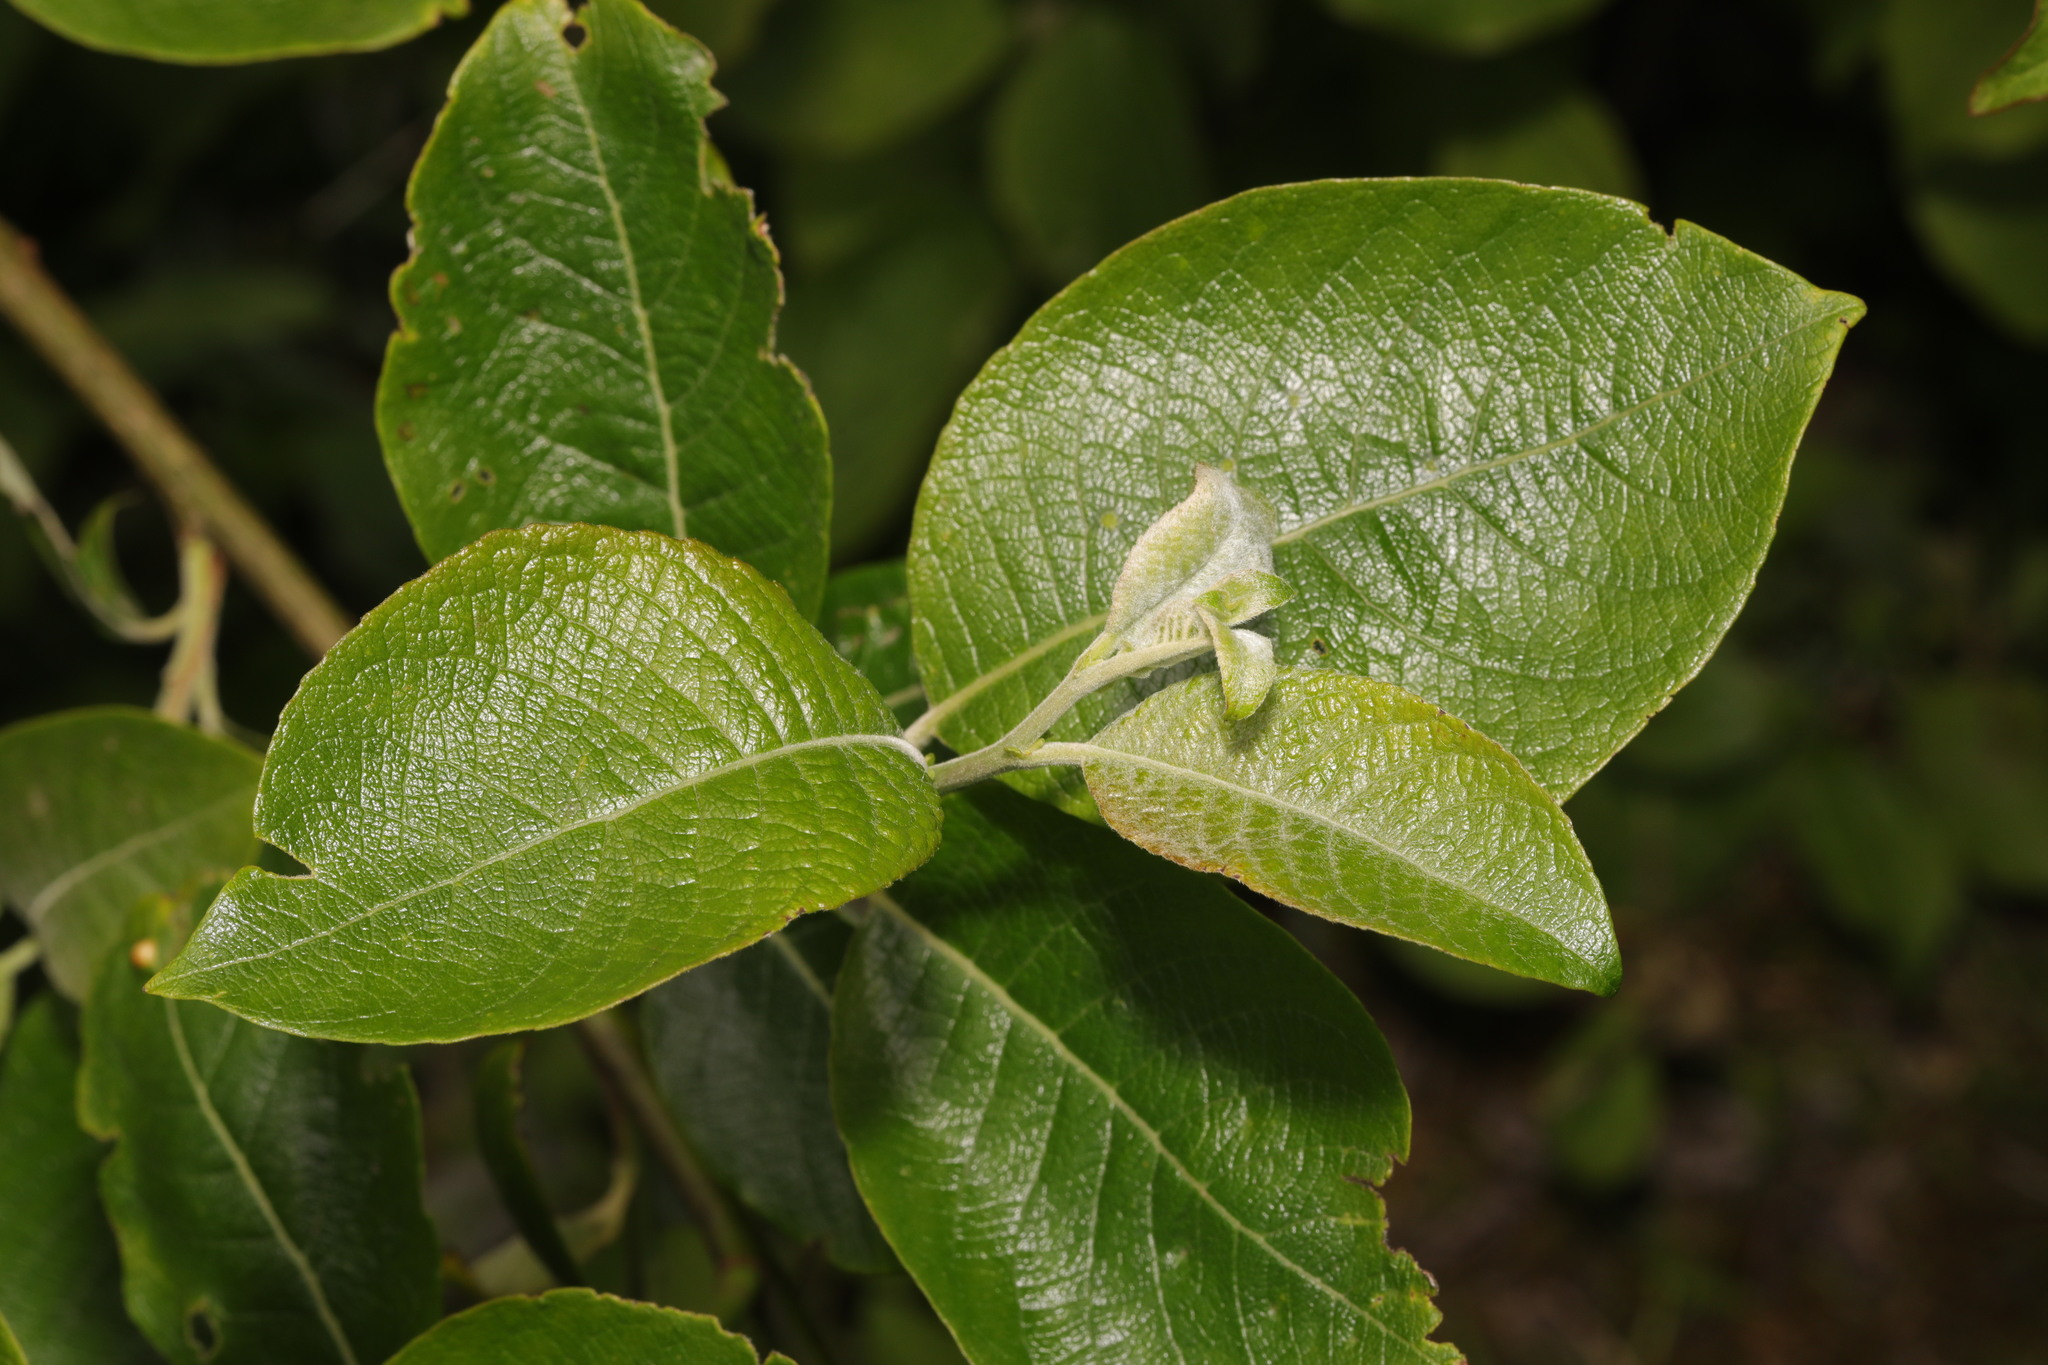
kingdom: Plantae
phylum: Tracheophyta
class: Magnoliopsida
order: Malpighiales
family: Salicaceae
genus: Salix
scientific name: Salix caprea
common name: Goat willow
